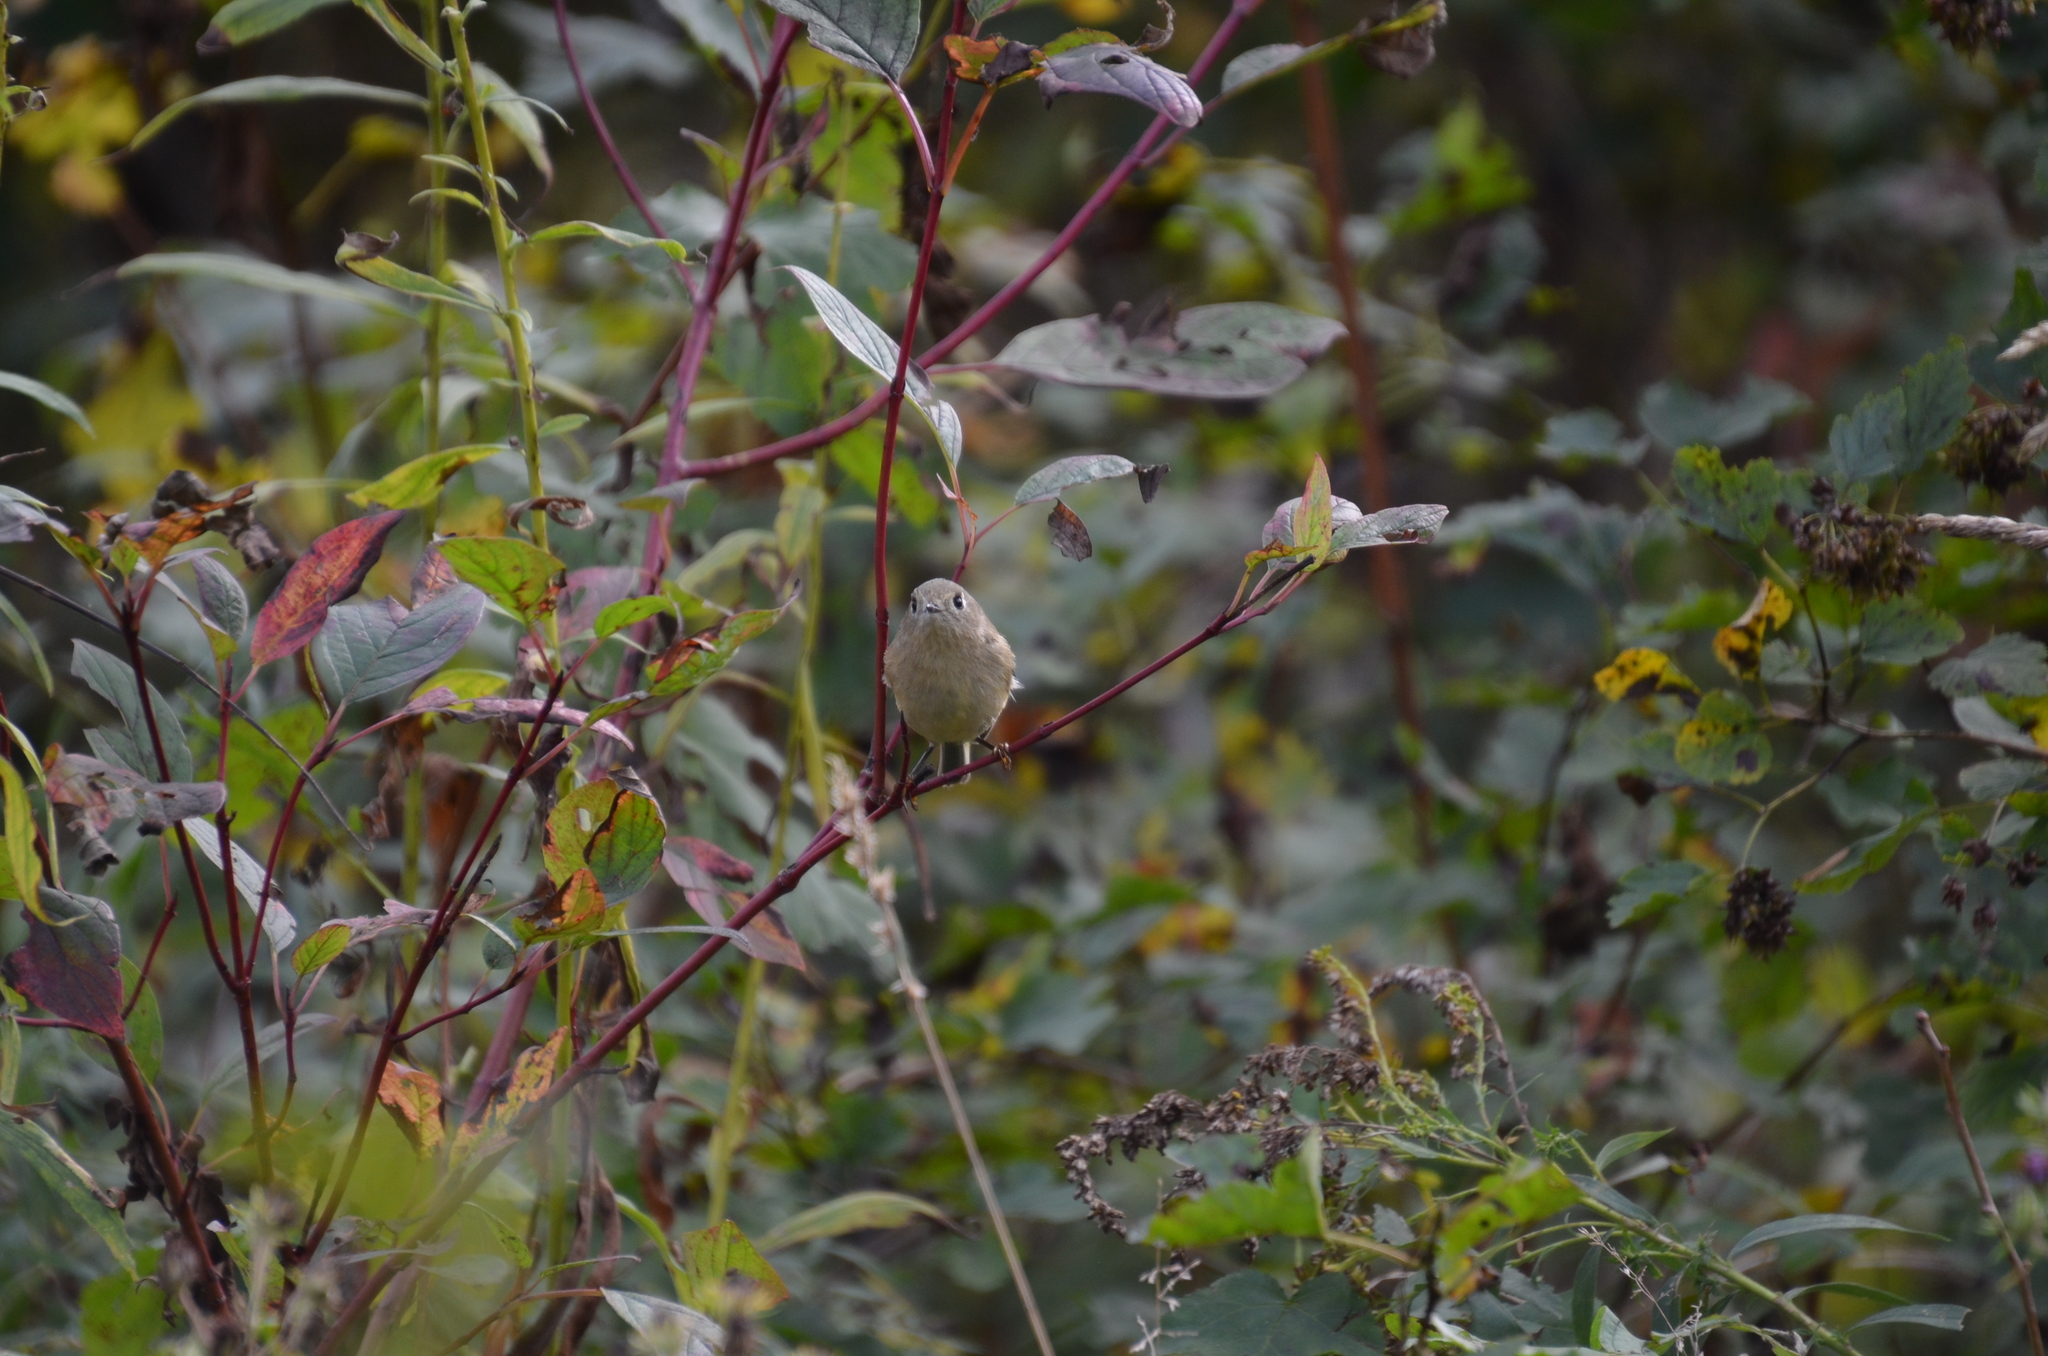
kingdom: Animalia
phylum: Chordata
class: Aves
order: Passeriformes
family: Regulidae
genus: Regulus
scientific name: Regulus calendula
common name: Ruby-crowned kinglet
